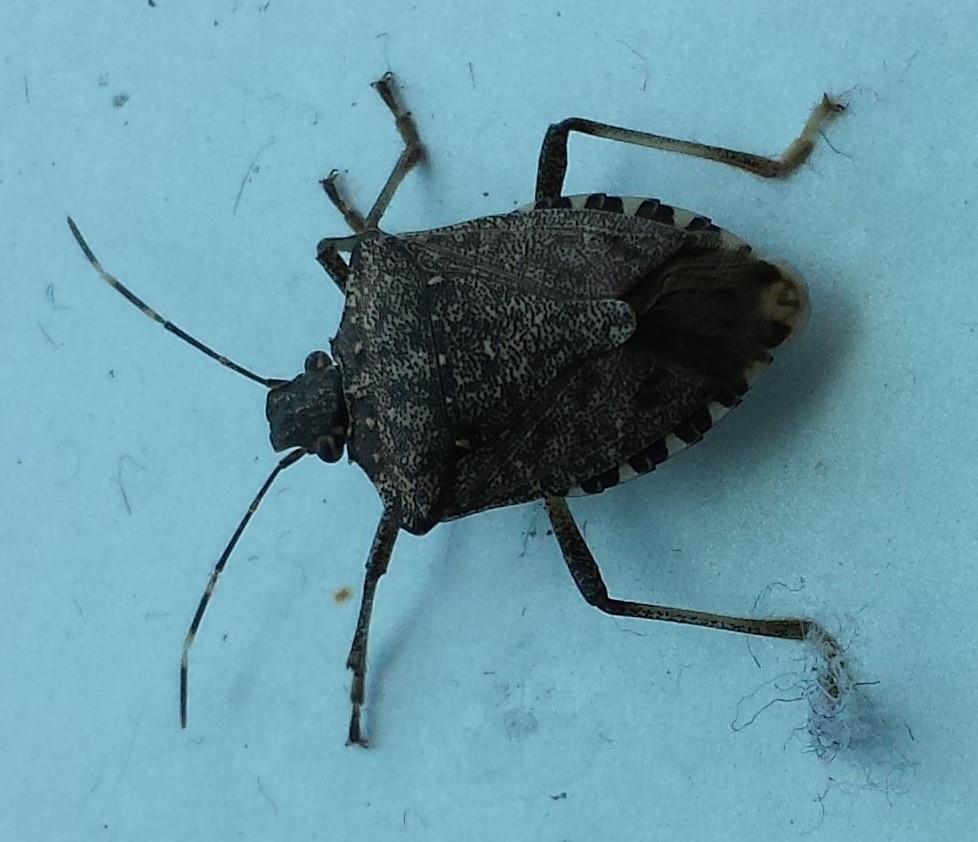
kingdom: Animalia
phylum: Arthropoda
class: Insecta
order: Hemiptera
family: Pentatomidae
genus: Halyomorpha
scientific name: Halyomorpha halys
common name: Brown marmorated stink bug
